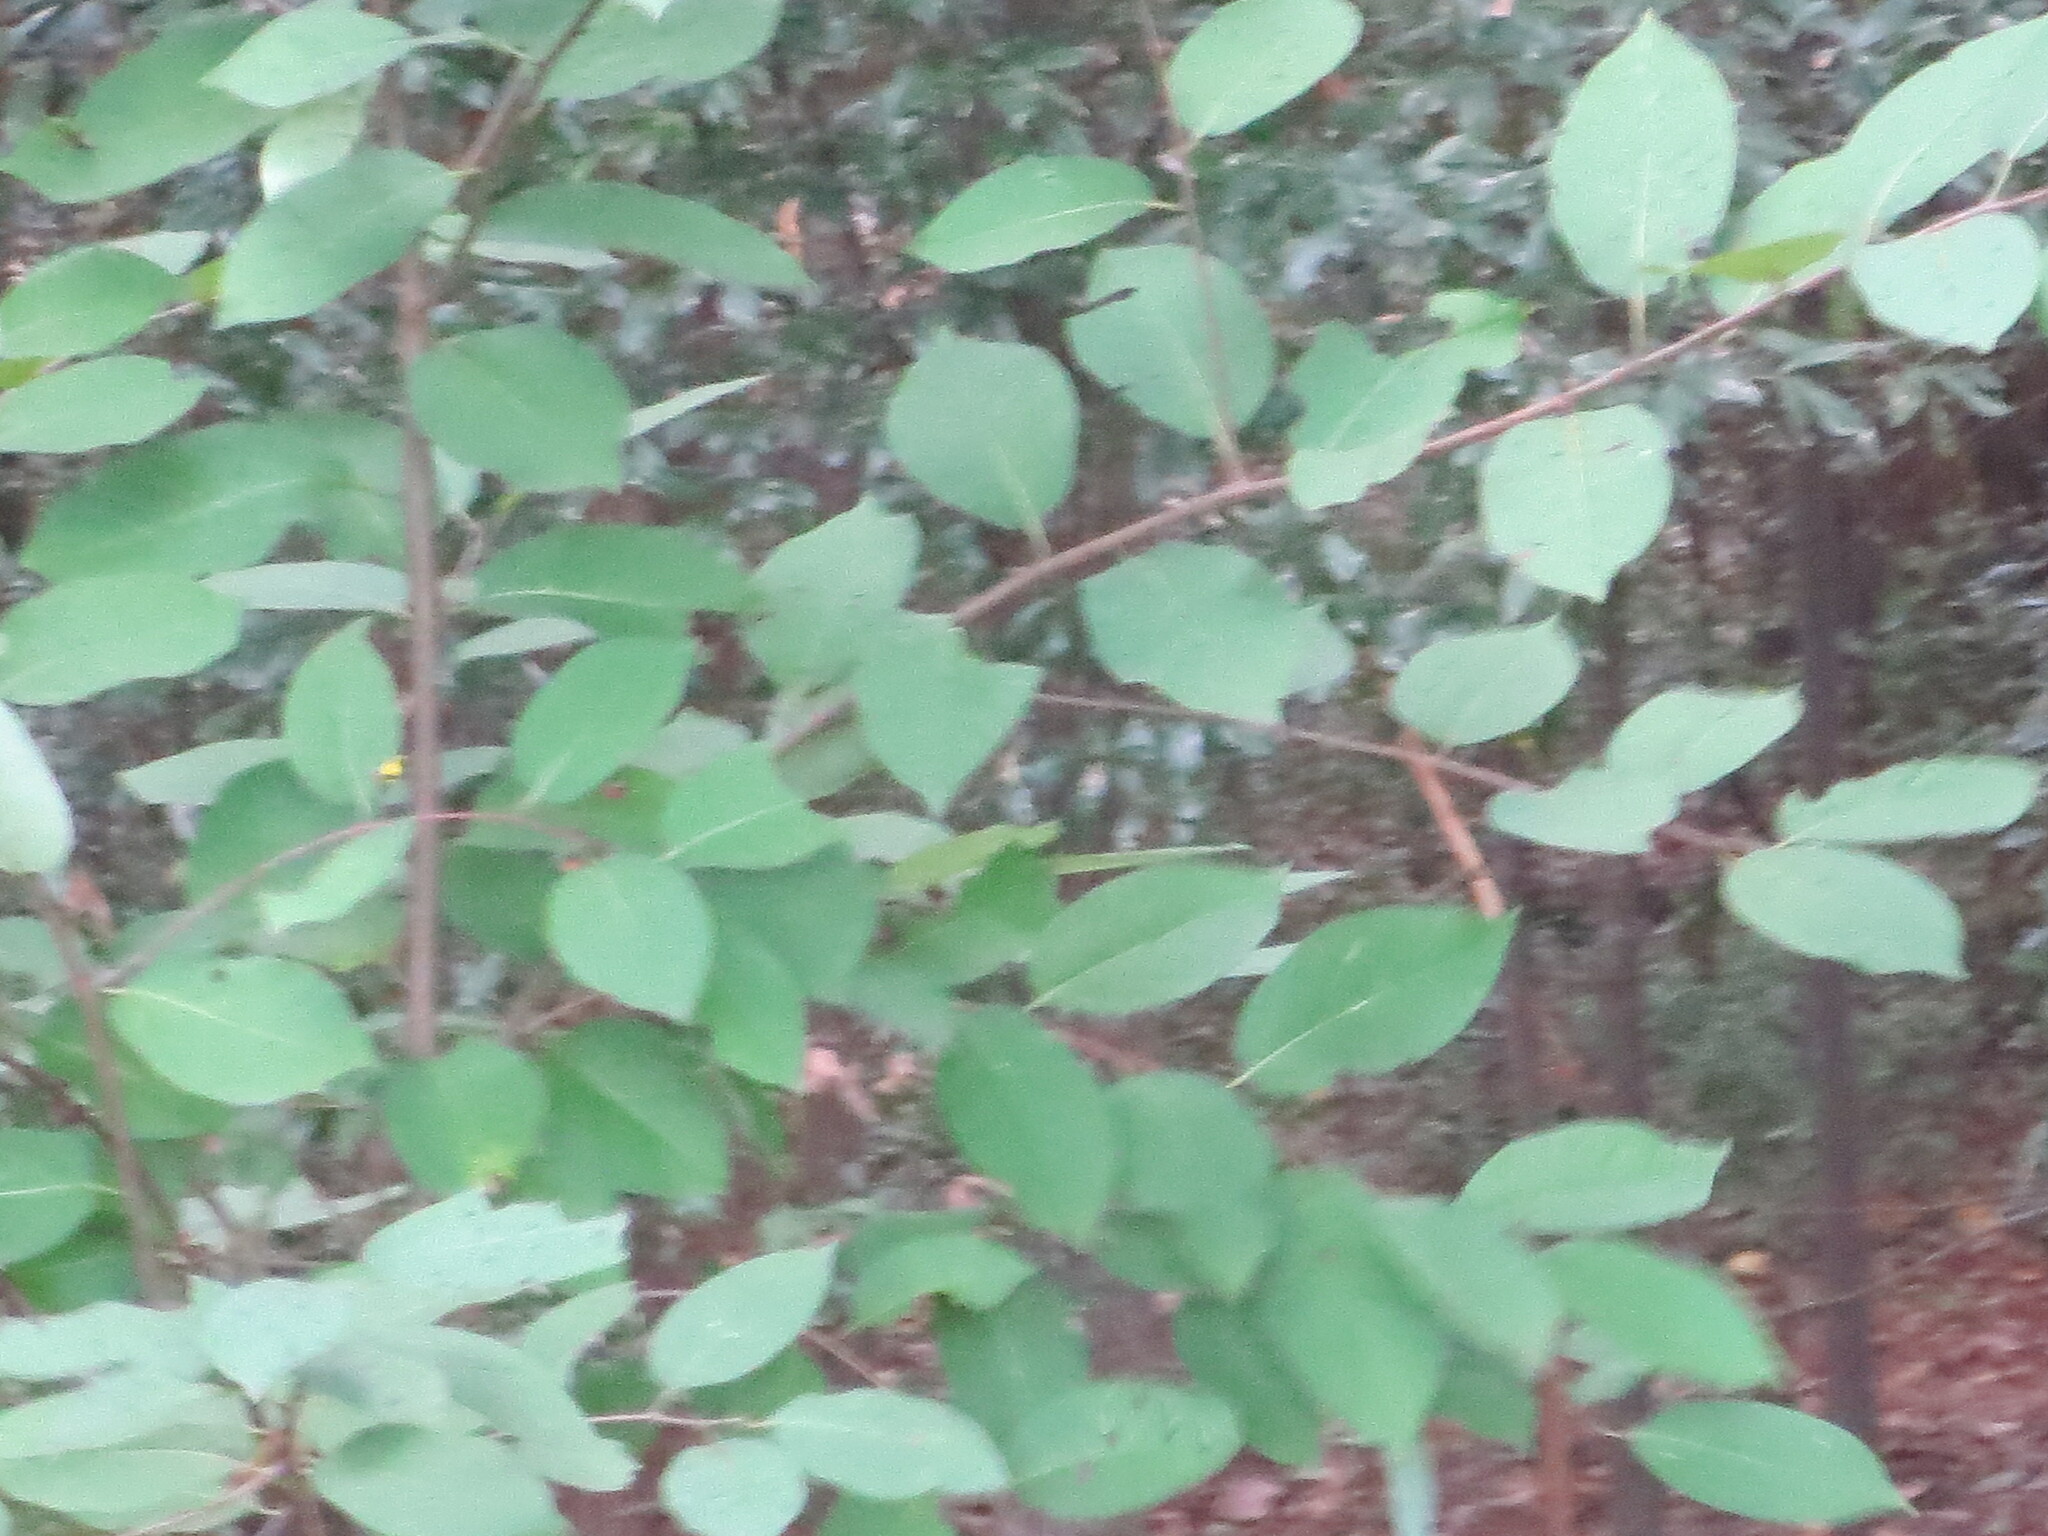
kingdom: Plantae
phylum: Tracheophyta
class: Magnoliopsida
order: Ericales
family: Ebenaceae
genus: Diospyros
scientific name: Diospyros virginiana
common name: Persimmon
